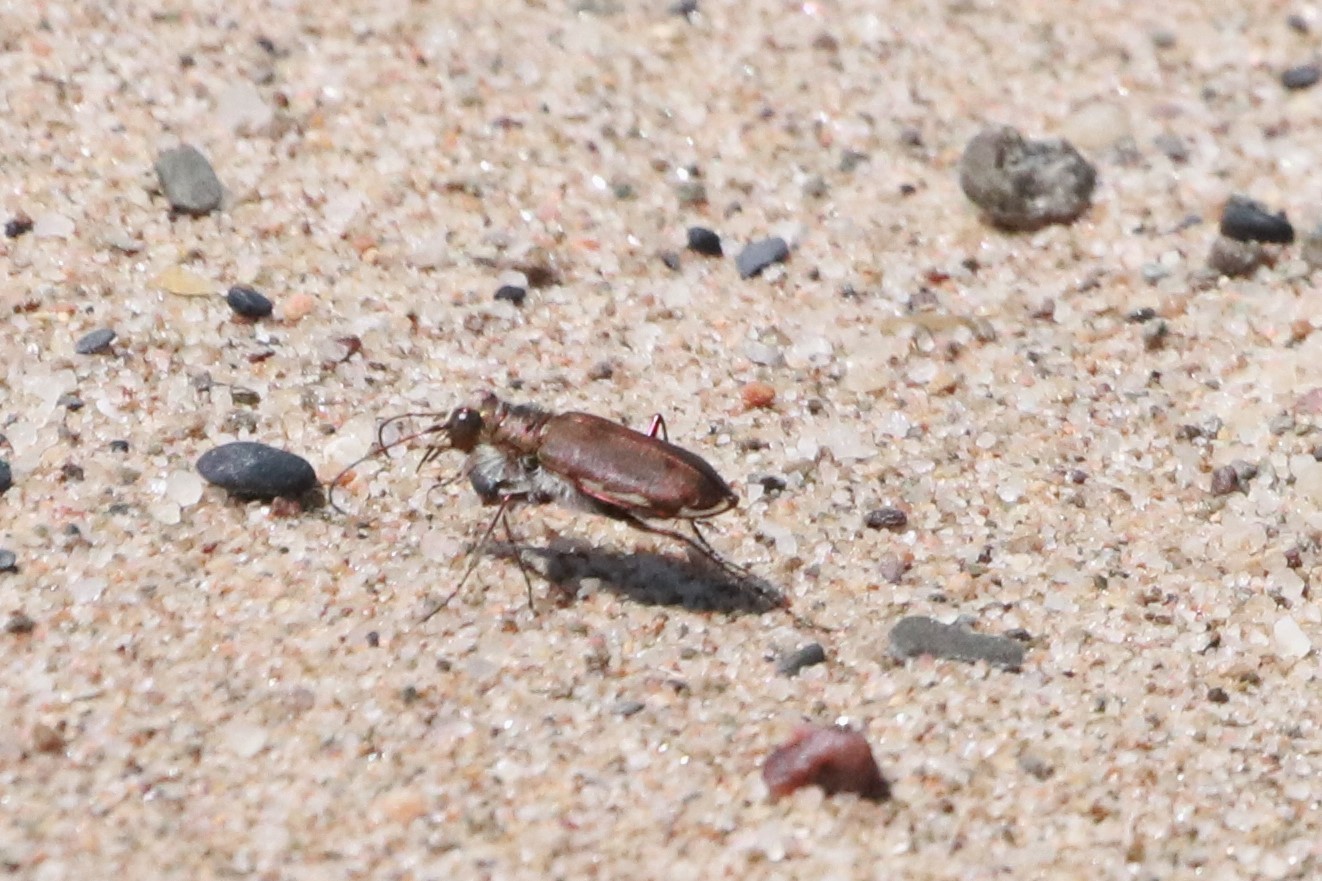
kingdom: Animalia
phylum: Arthropoda
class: Insecta
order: Coleoptera
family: Carabidae
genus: Cicindela
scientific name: Cicindela hirticollis
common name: Hairy-necked tiger beetle
